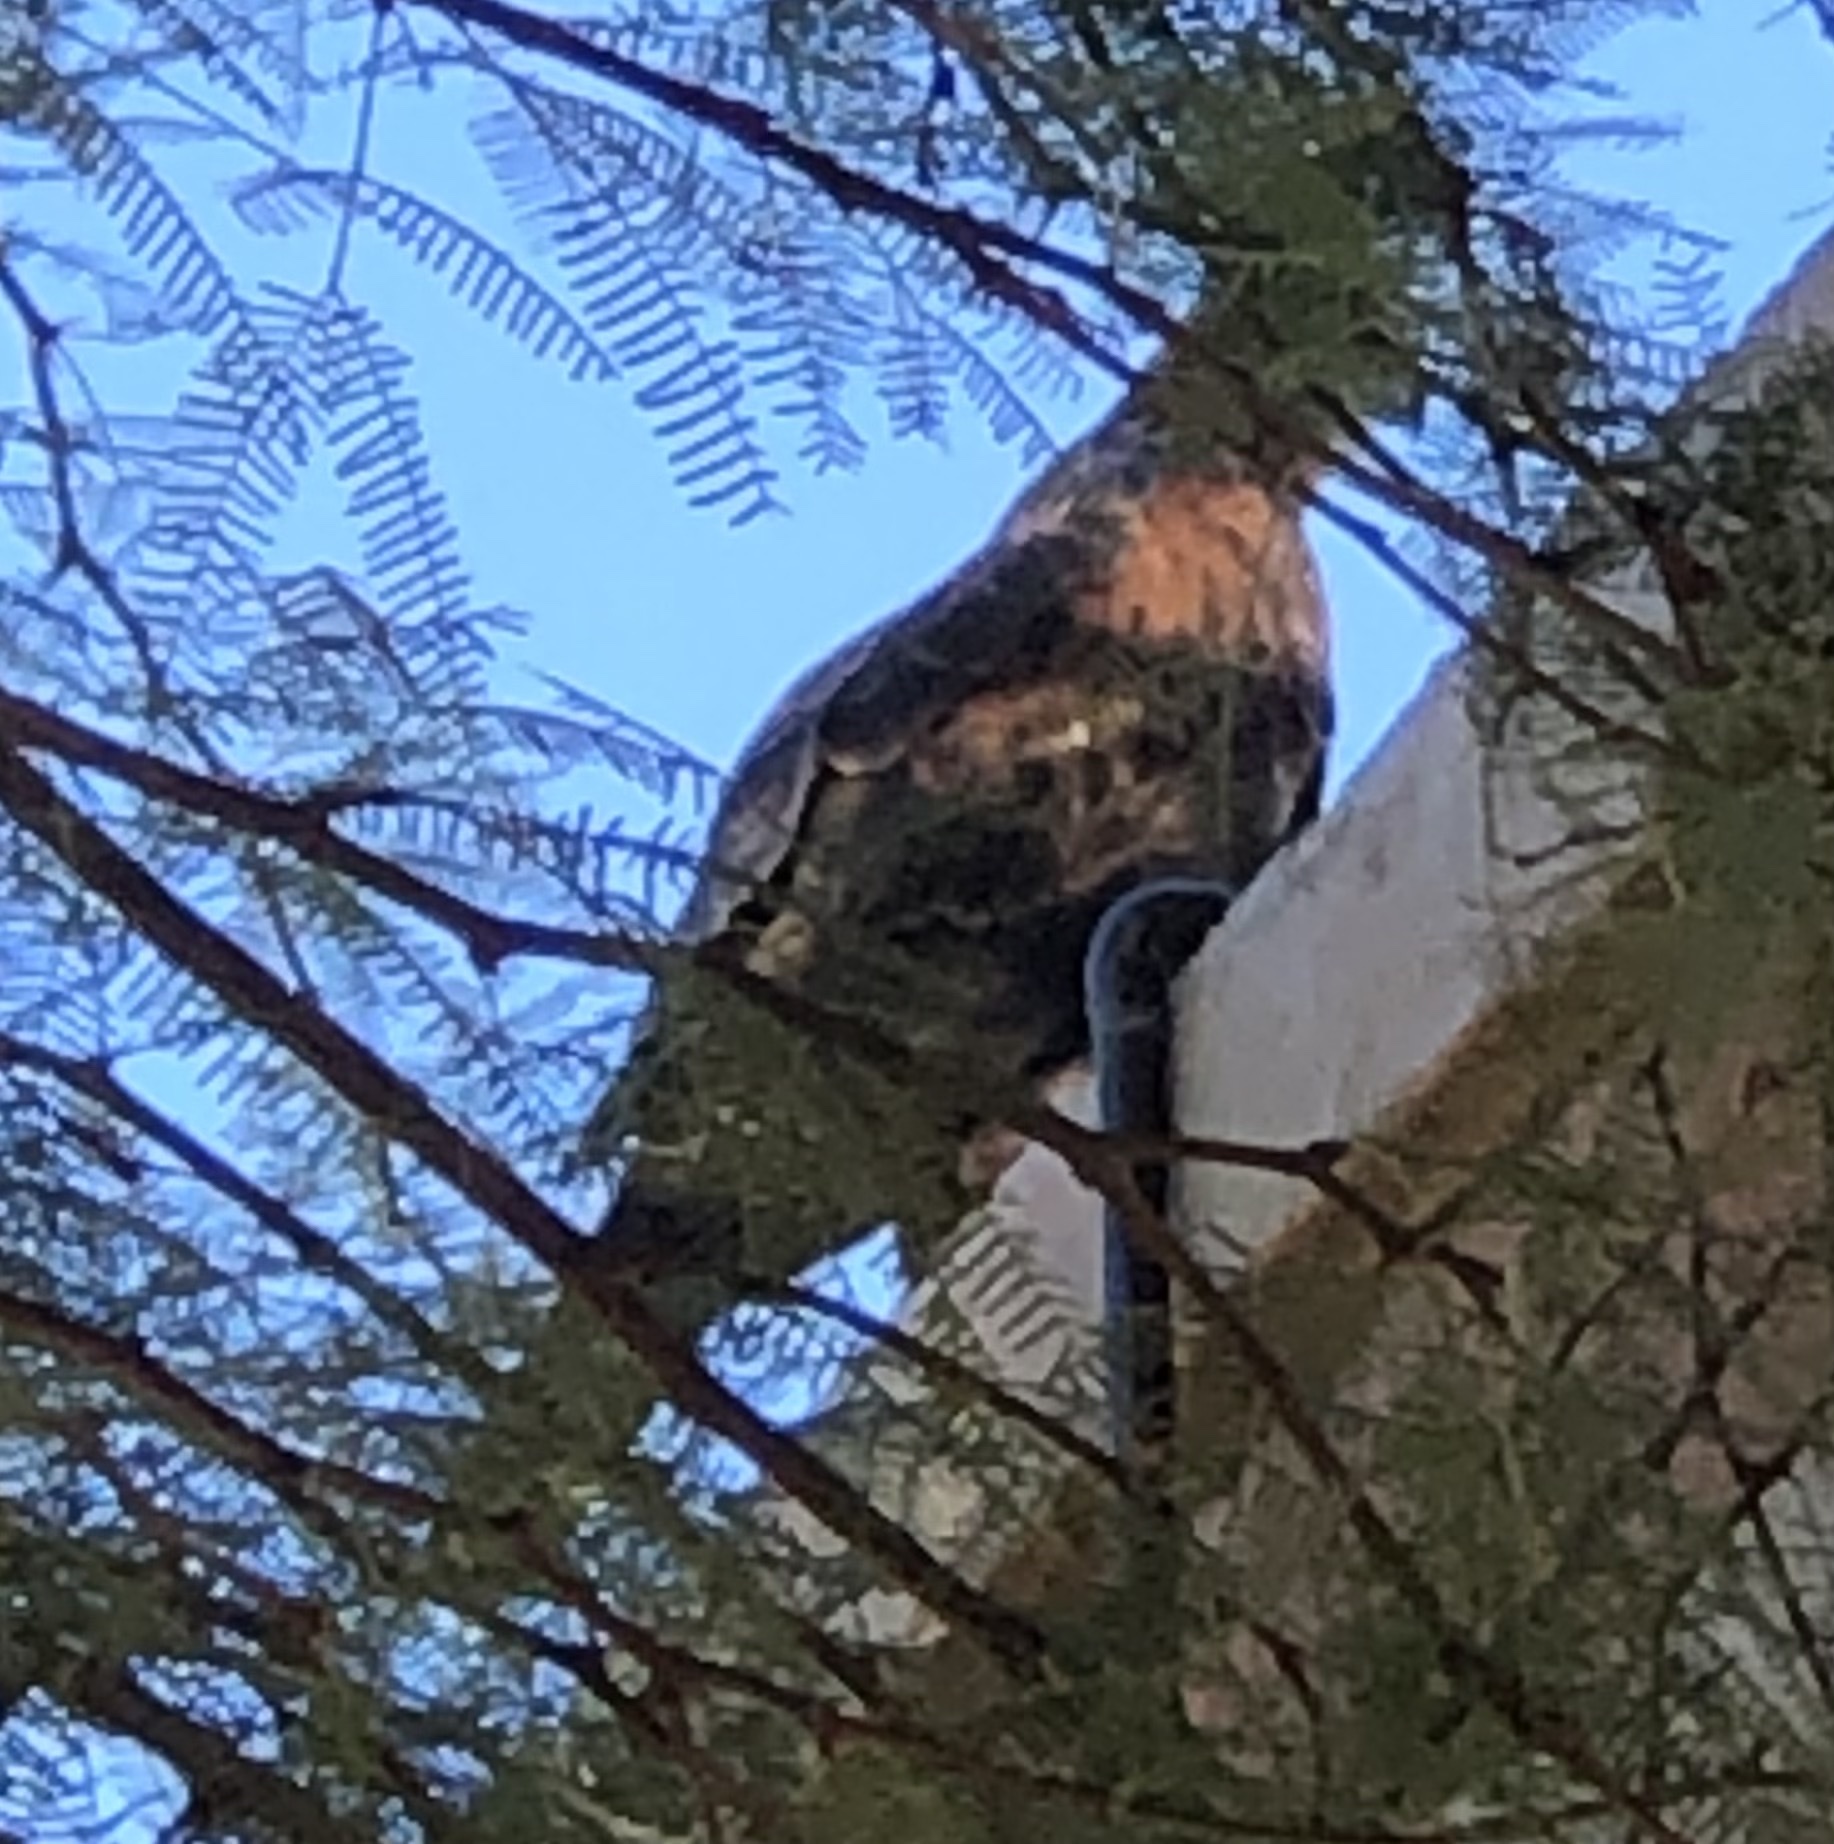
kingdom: Animalia
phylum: Chordata
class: Aves
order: Accipitriformes
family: Accipitridae
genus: Parabuteo
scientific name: Parabuteo unicinctus
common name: Harris's hawk
